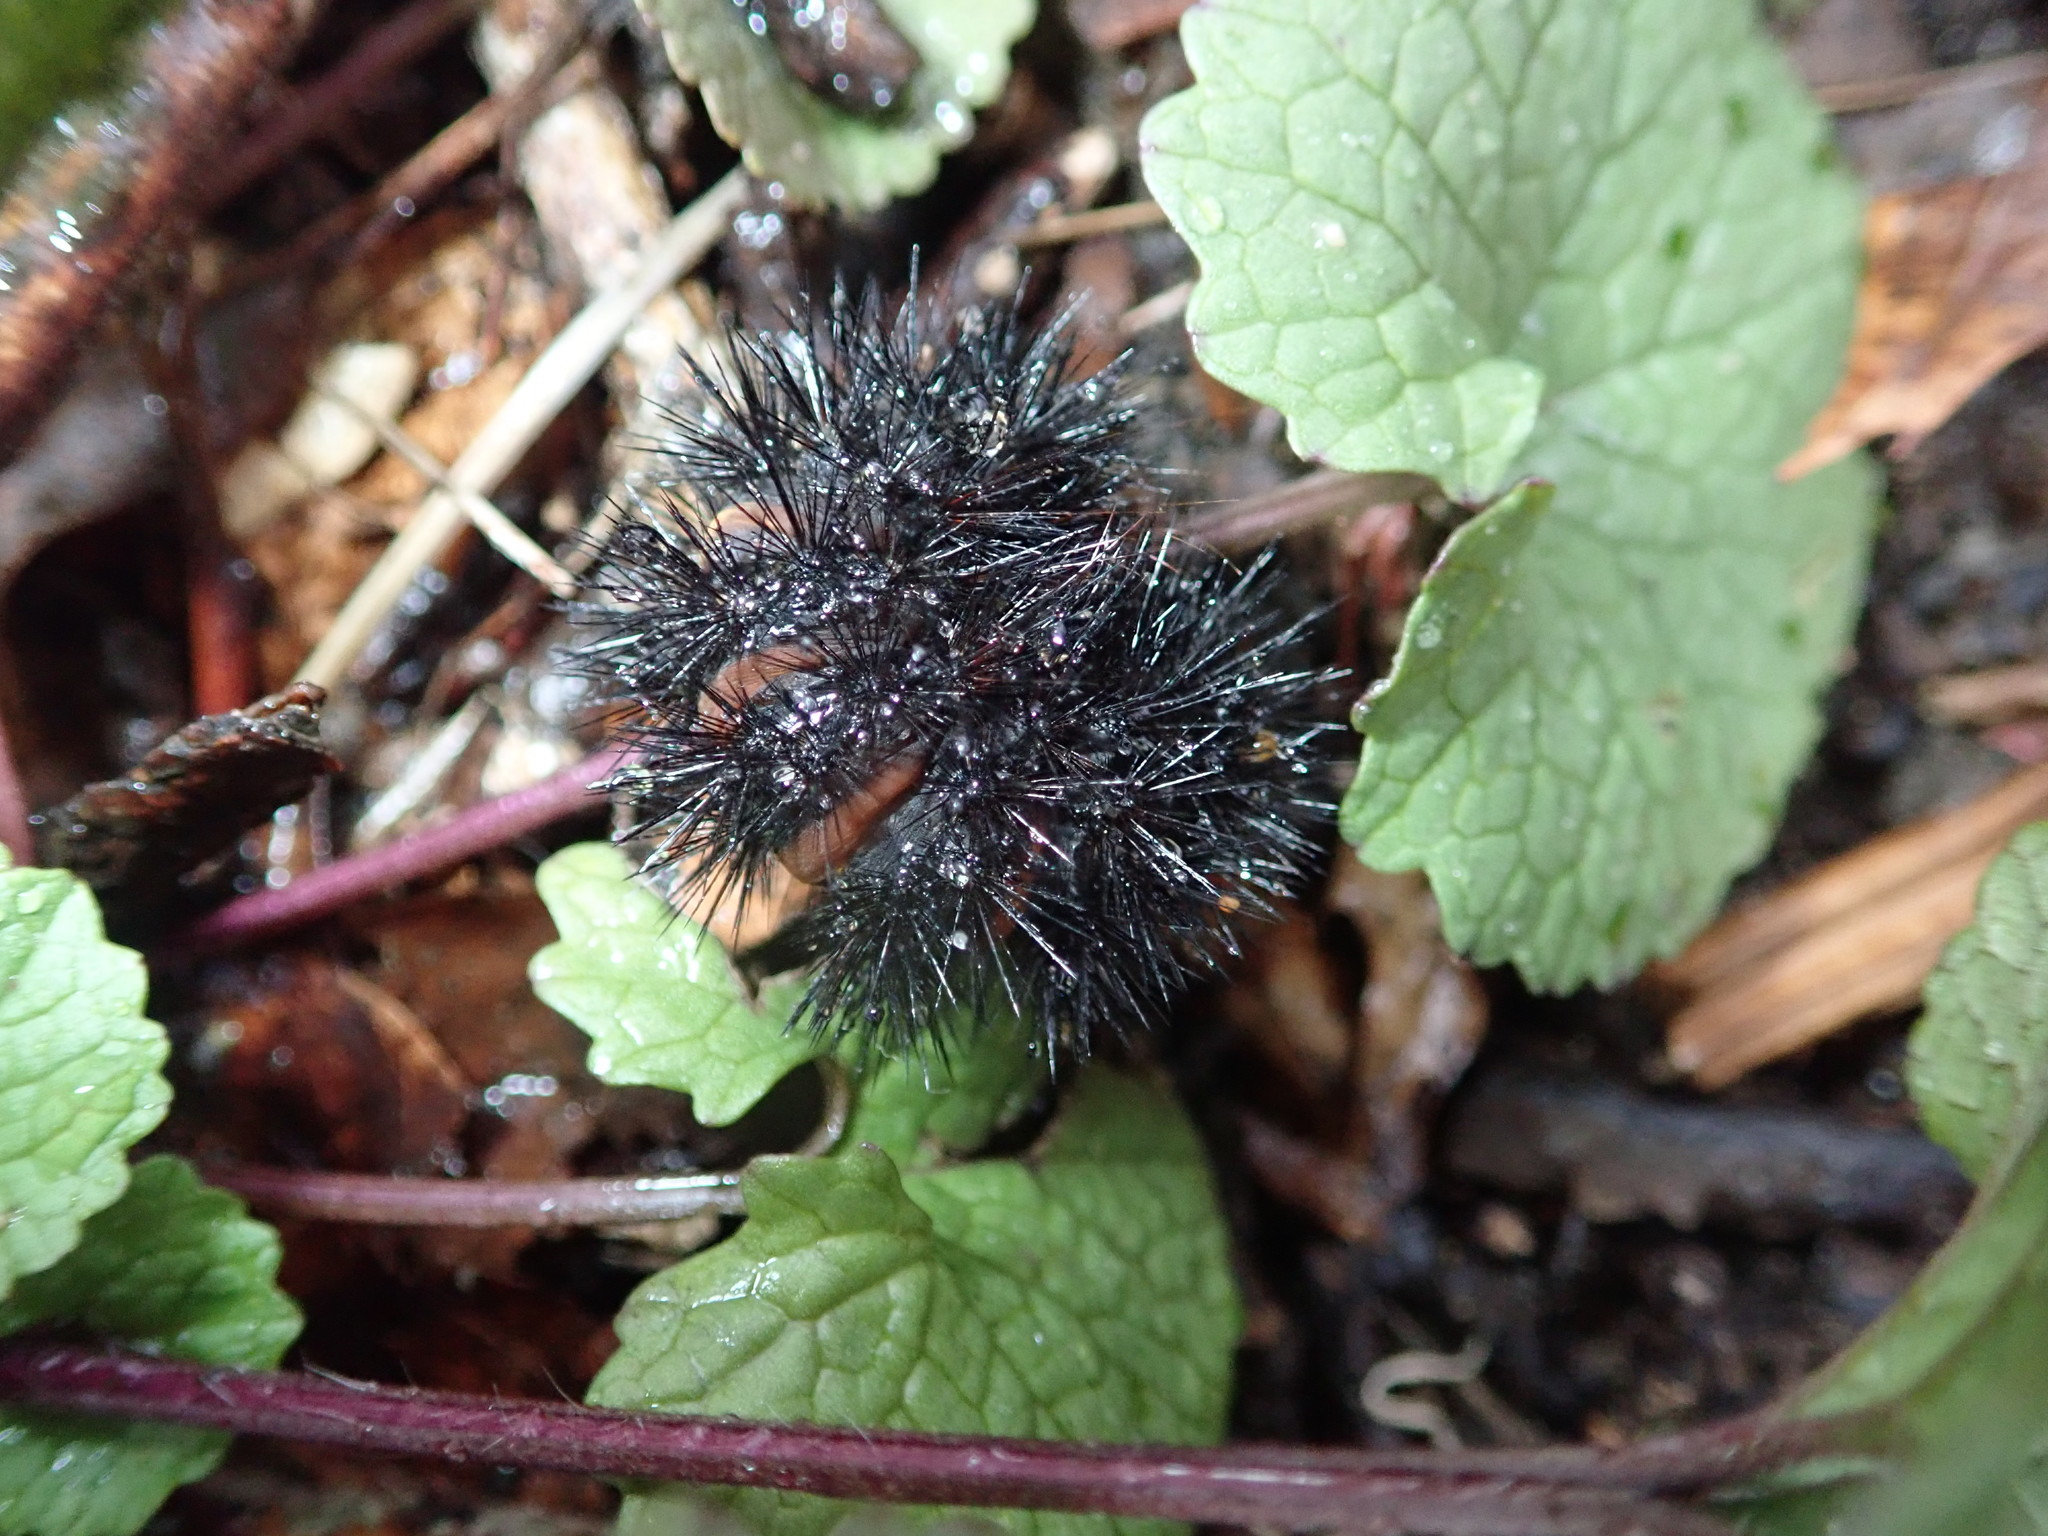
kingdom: Animalia
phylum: Arthropoda
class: Insecta
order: Lepidoptera
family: Erebidae
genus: Hypercompe
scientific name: Hypercompe scribonia
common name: Giant leopard moth
